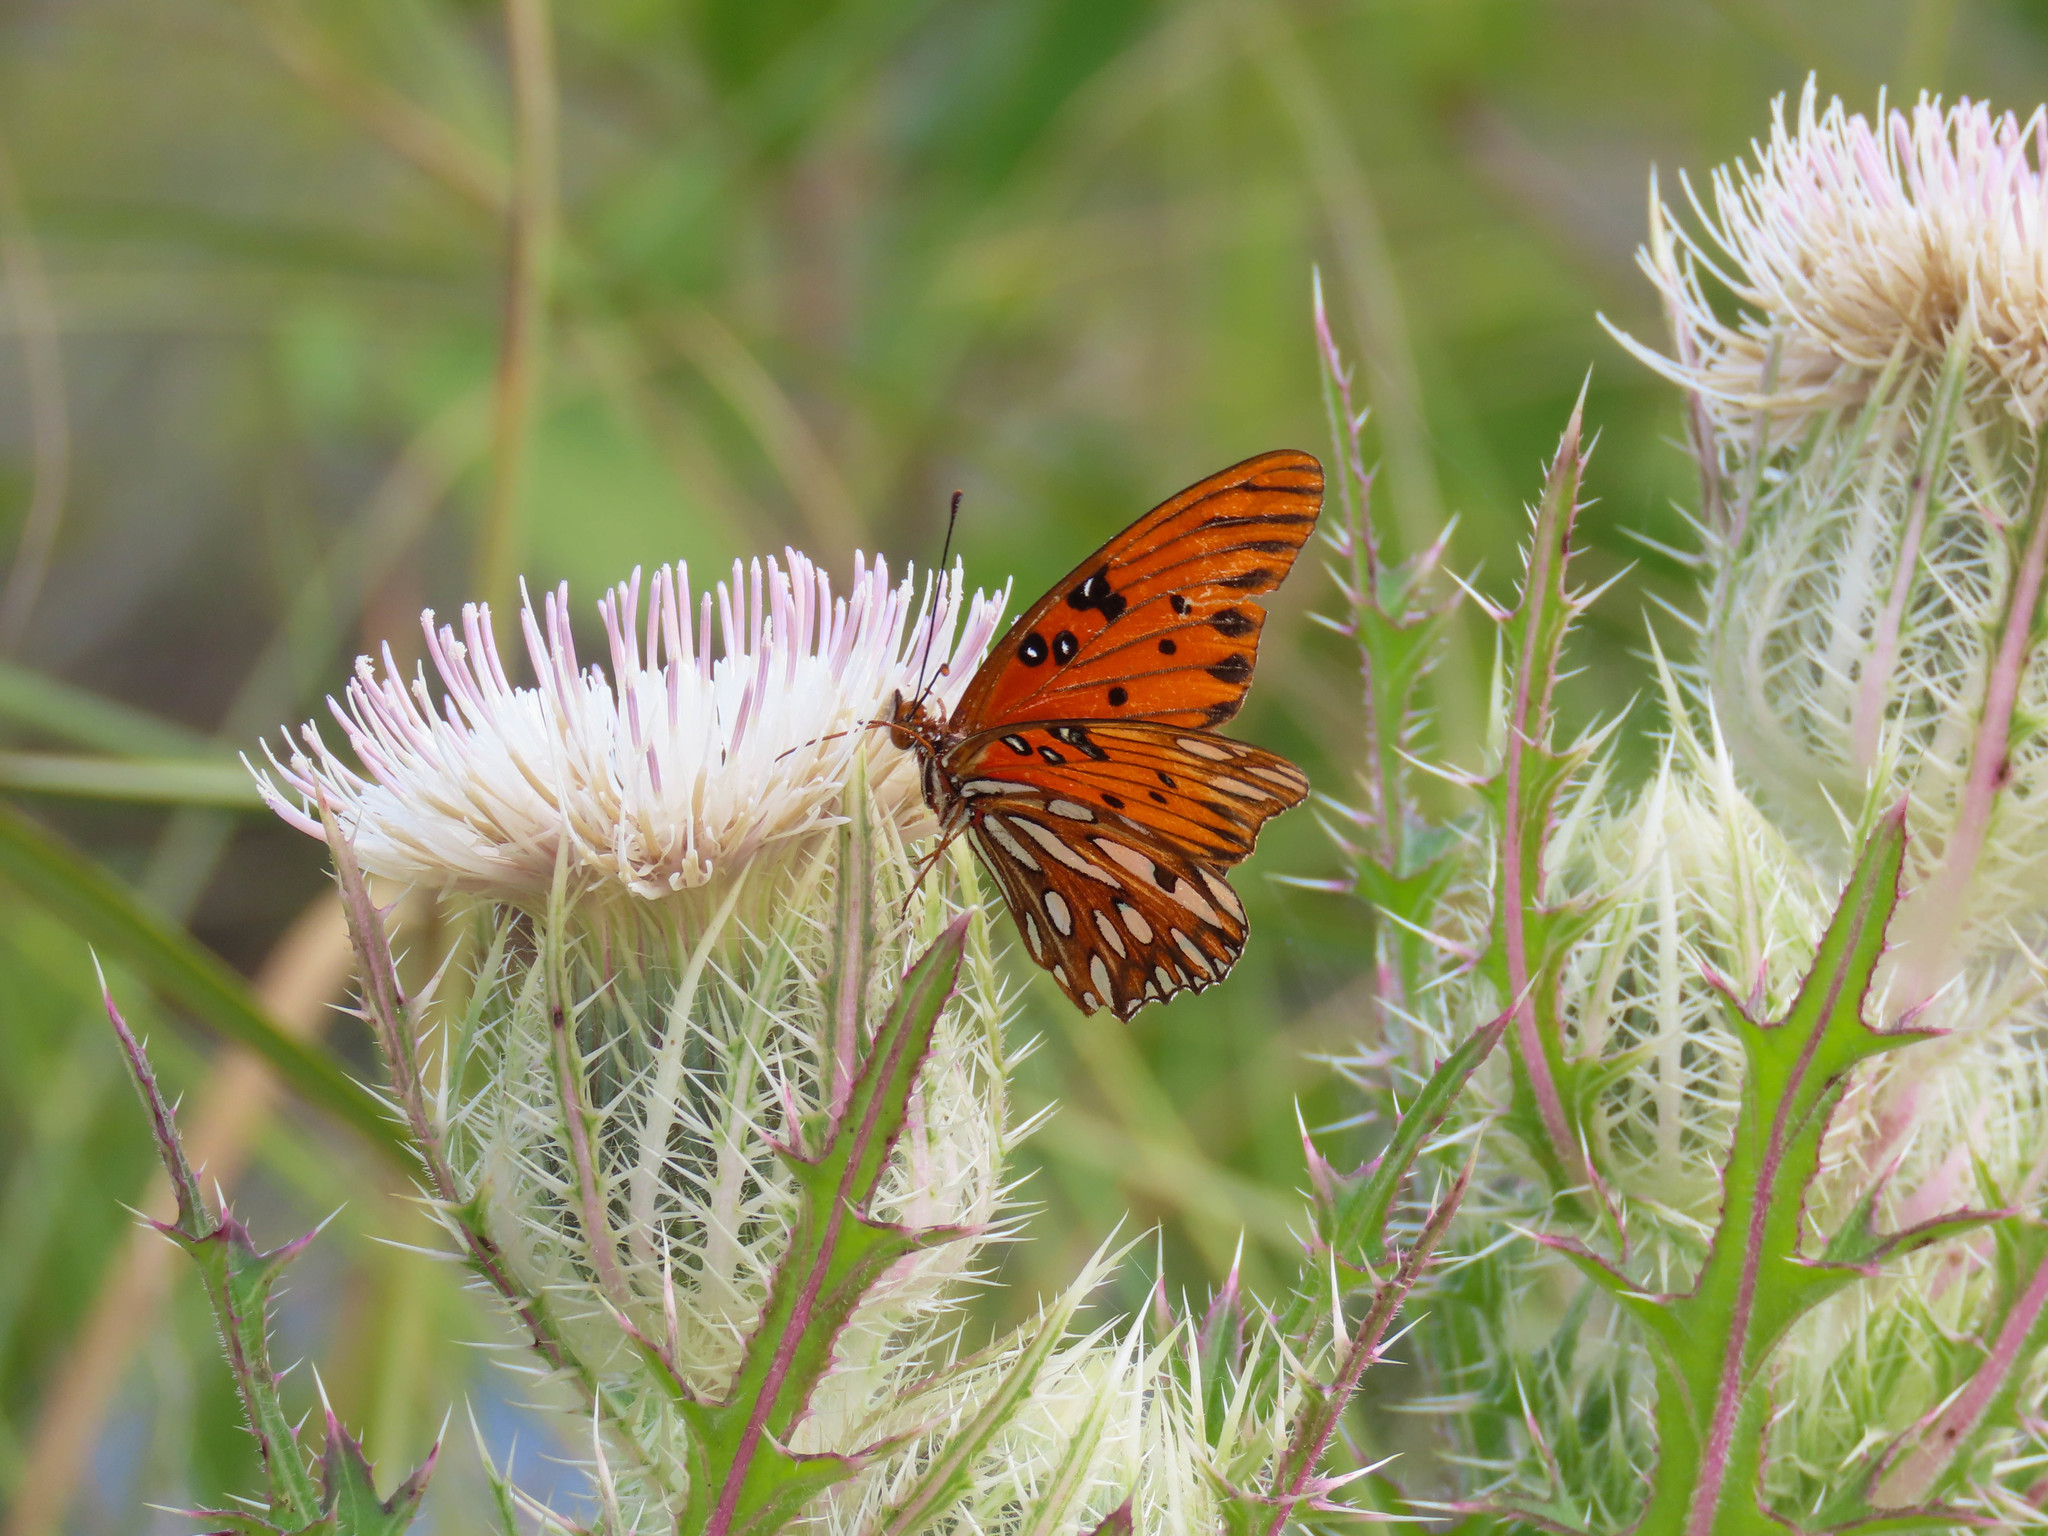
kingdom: Animalia
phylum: Arthropoda
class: Insecta
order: Lepidoptera
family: Nymphalidae
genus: Dione
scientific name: Dione vanillae
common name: Gulf fritillary
